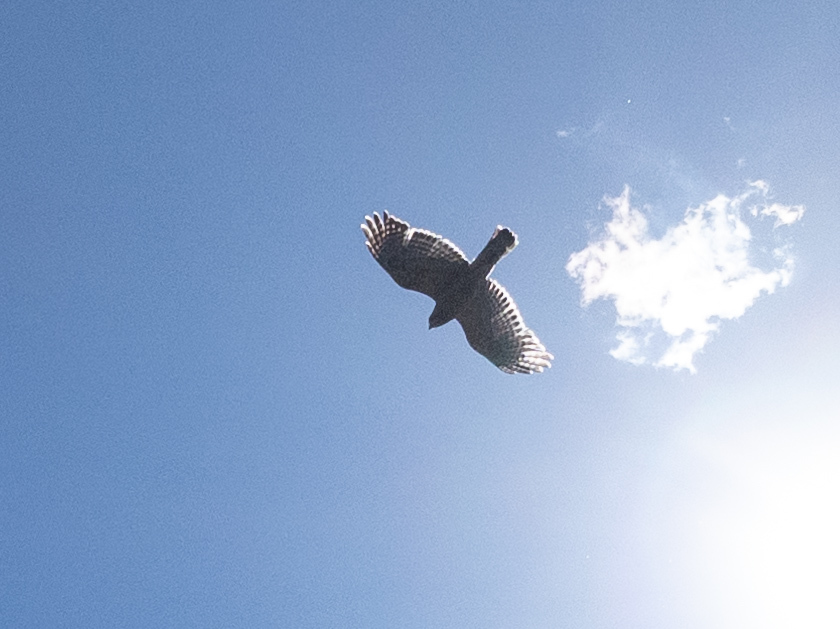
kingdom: Animalia
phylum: Chordata
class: Aves
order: Accipitriformes
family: Accipitridae
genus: Accipiter
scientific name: Accipiter cooperii
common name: Cooper's hawk
